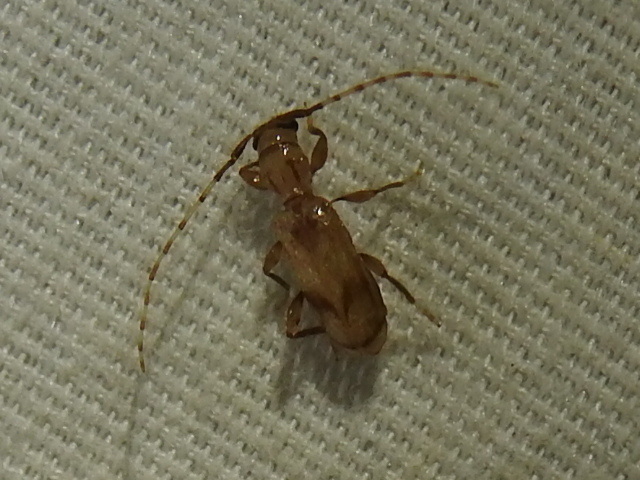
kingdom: Animalia
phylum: Arthropoda
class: Insecta
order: Coleoptera
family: Cerambycidae
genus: Obrium
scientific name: Obrium maculatum
